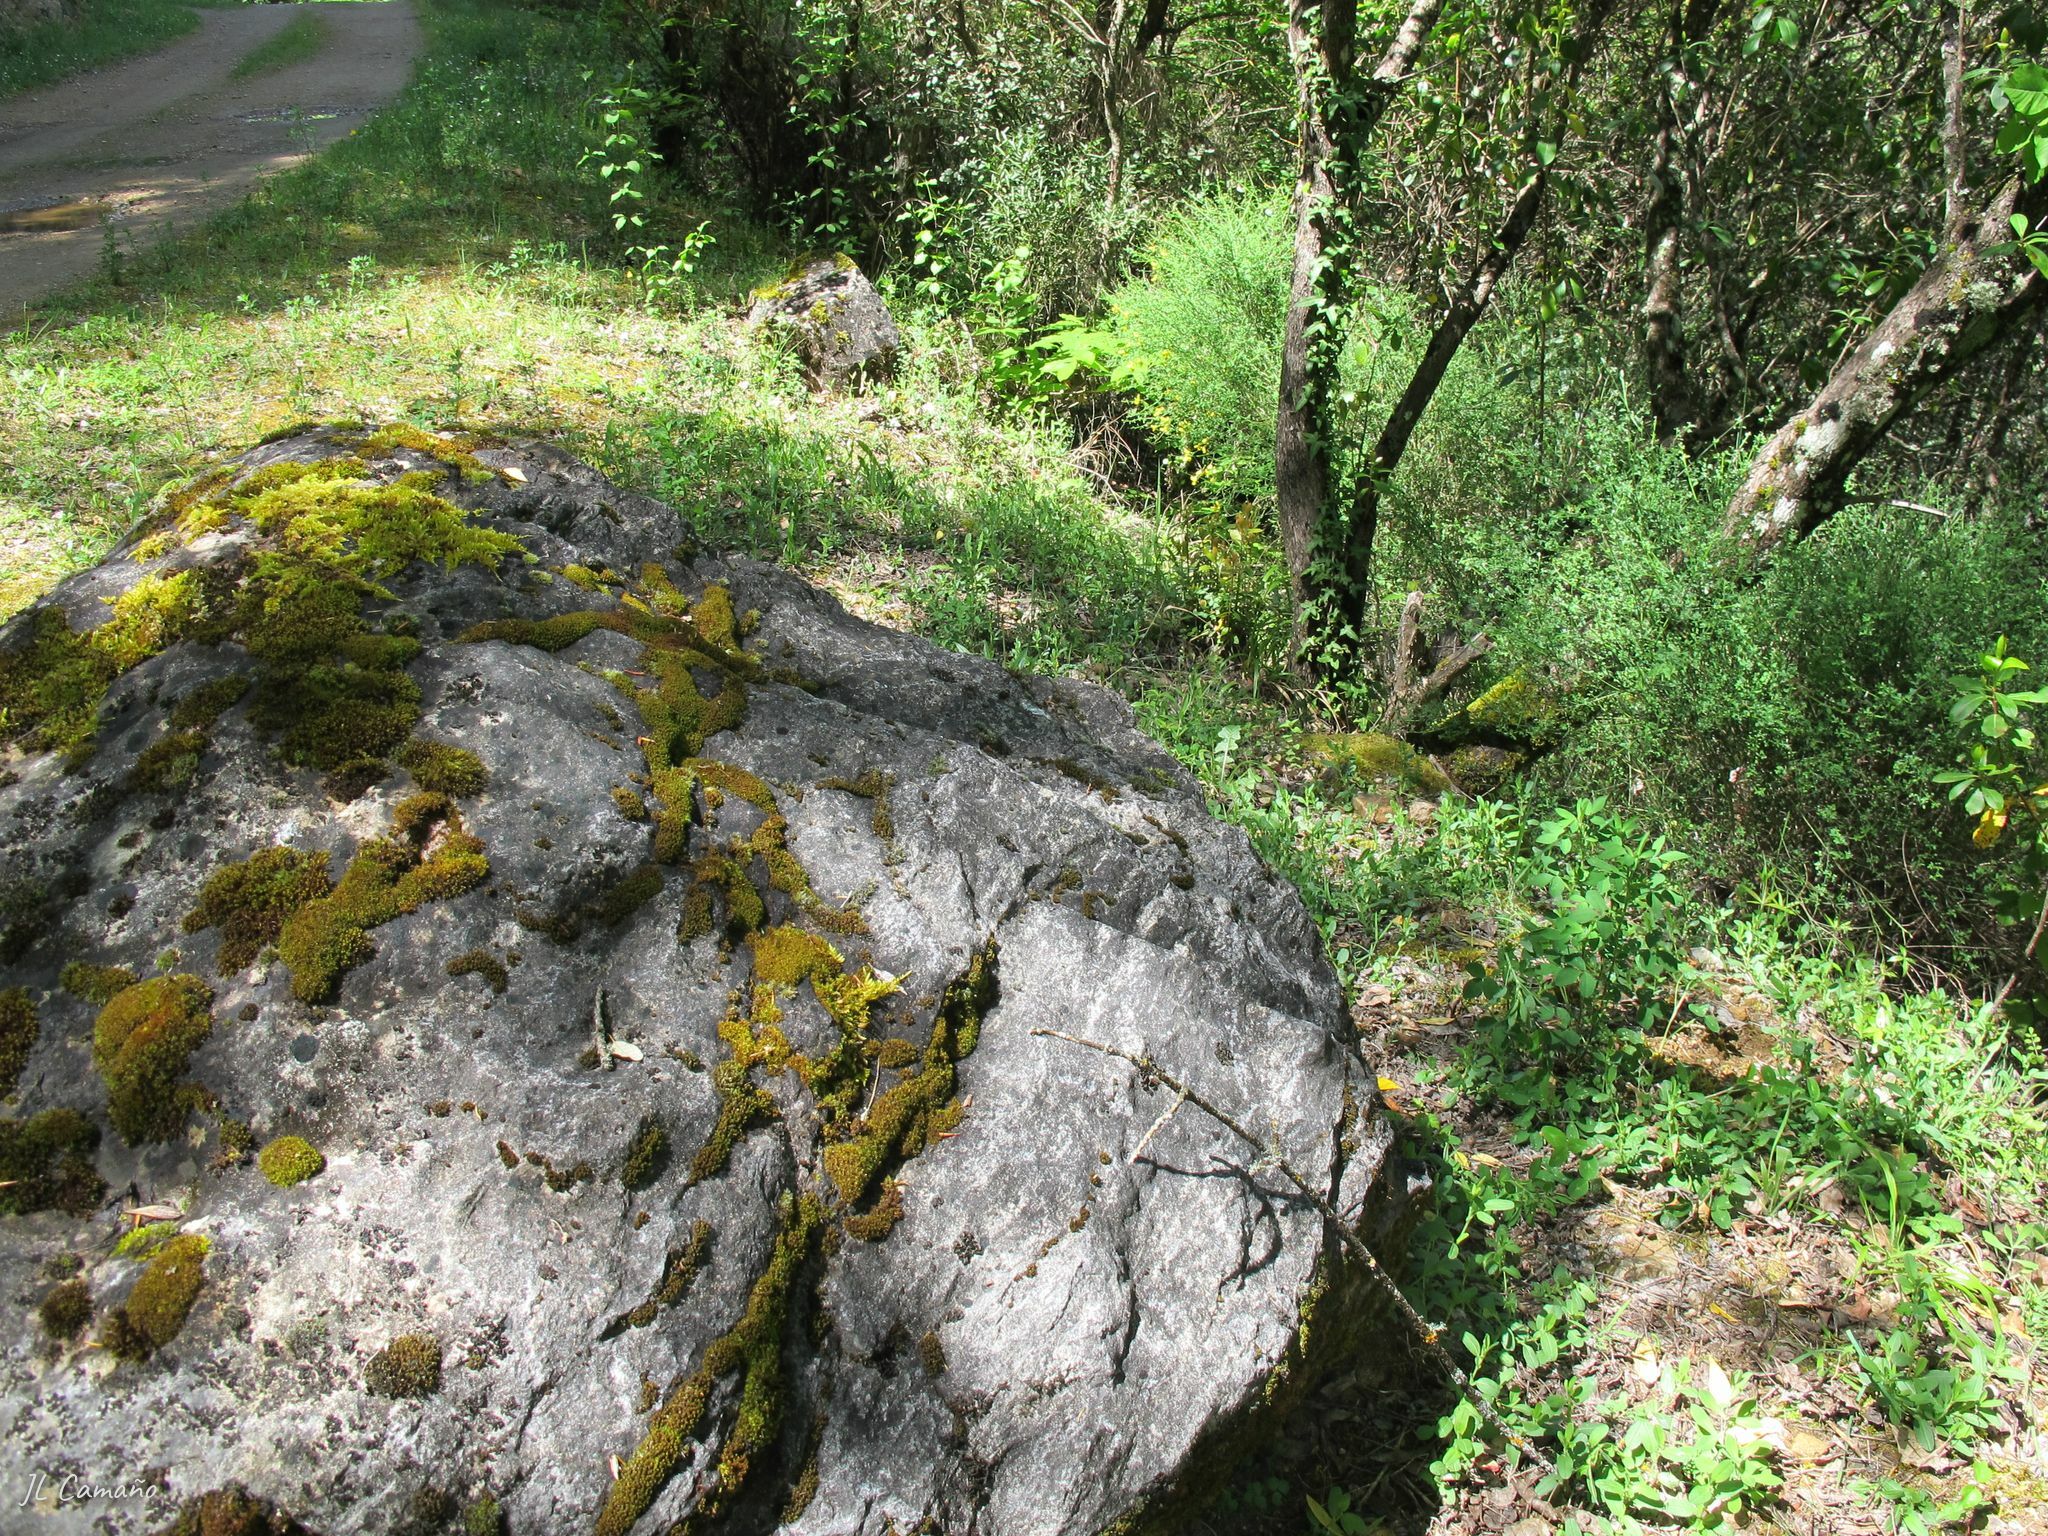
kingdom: Plantae
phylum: Bryophyta
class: Bryopsida
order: Pottiales
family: Pottiaceae
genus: Syntrichia
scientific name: Syntrichia montana
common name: Intermediate screw-moss
